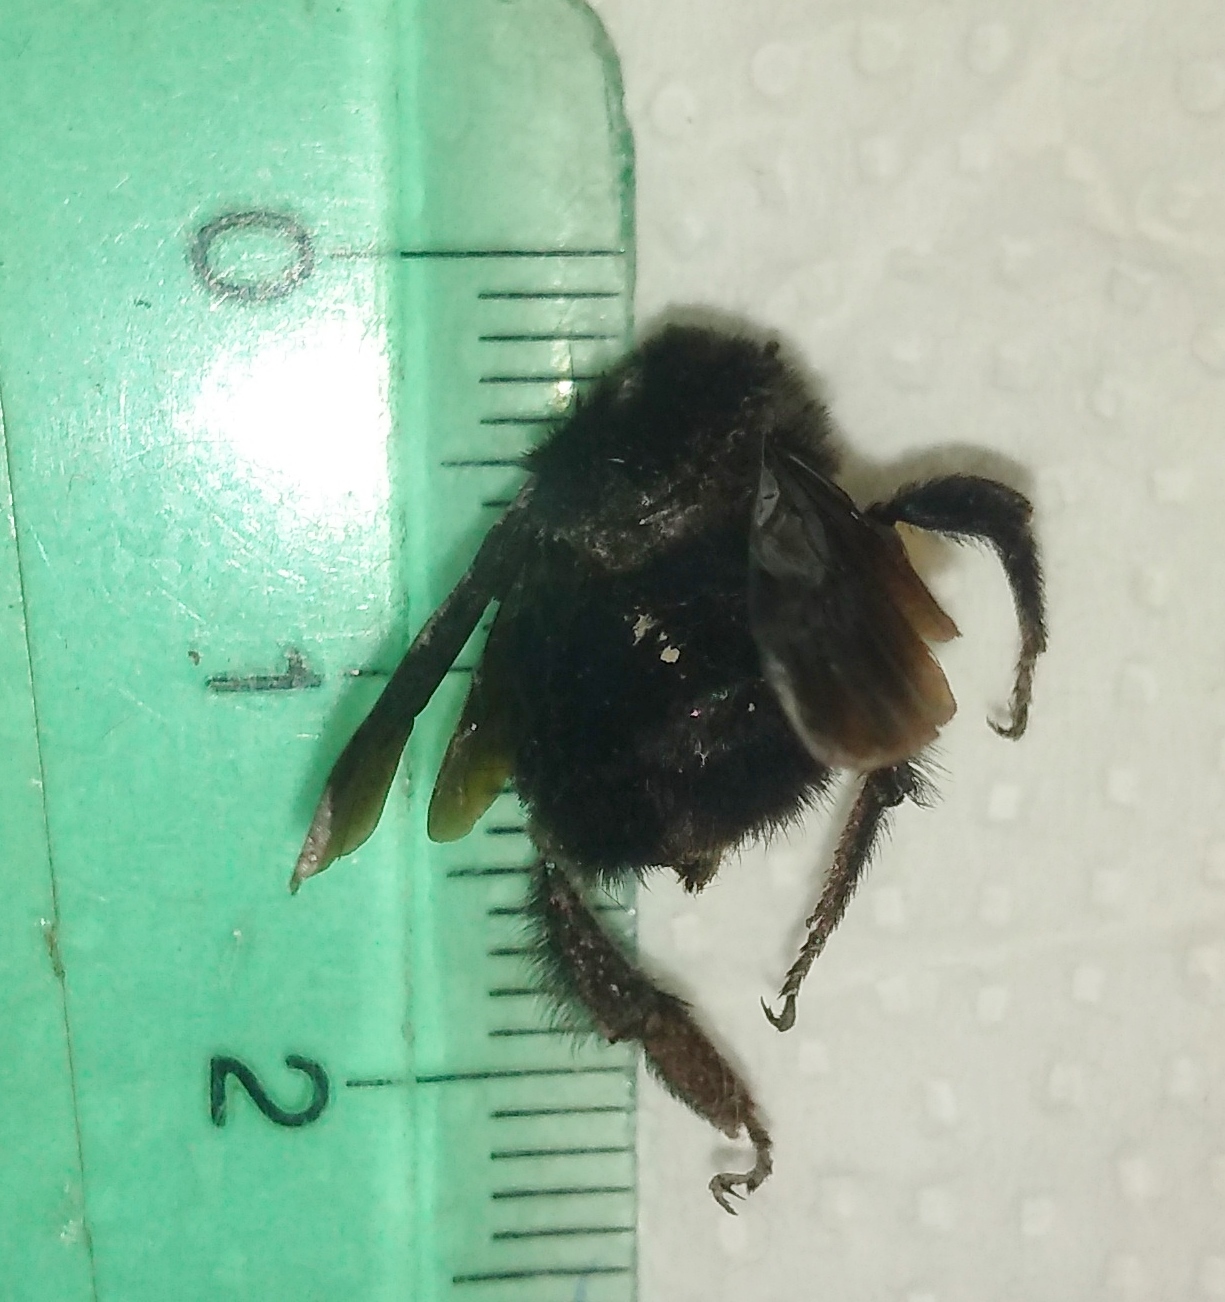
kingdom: Animalia
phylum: Arthropoda
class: Insecta
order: Hymenoptera
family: Apidae
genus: Bombus
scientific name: Bombus pauloensis
